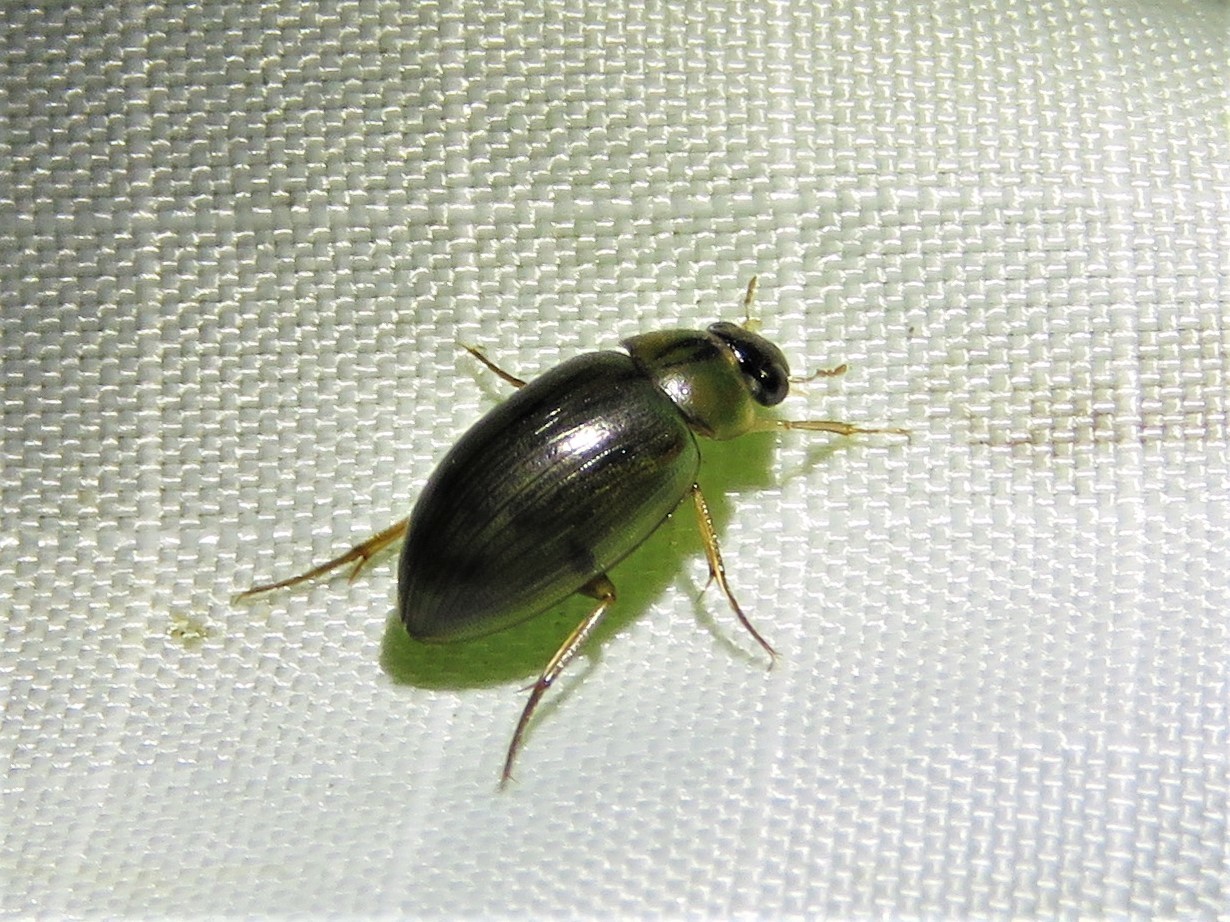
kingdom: Animalia
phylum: Arthropoda
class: Insecta
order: Coleoptera
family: Hydrophilidae
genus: Berosus
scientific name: Berosus
